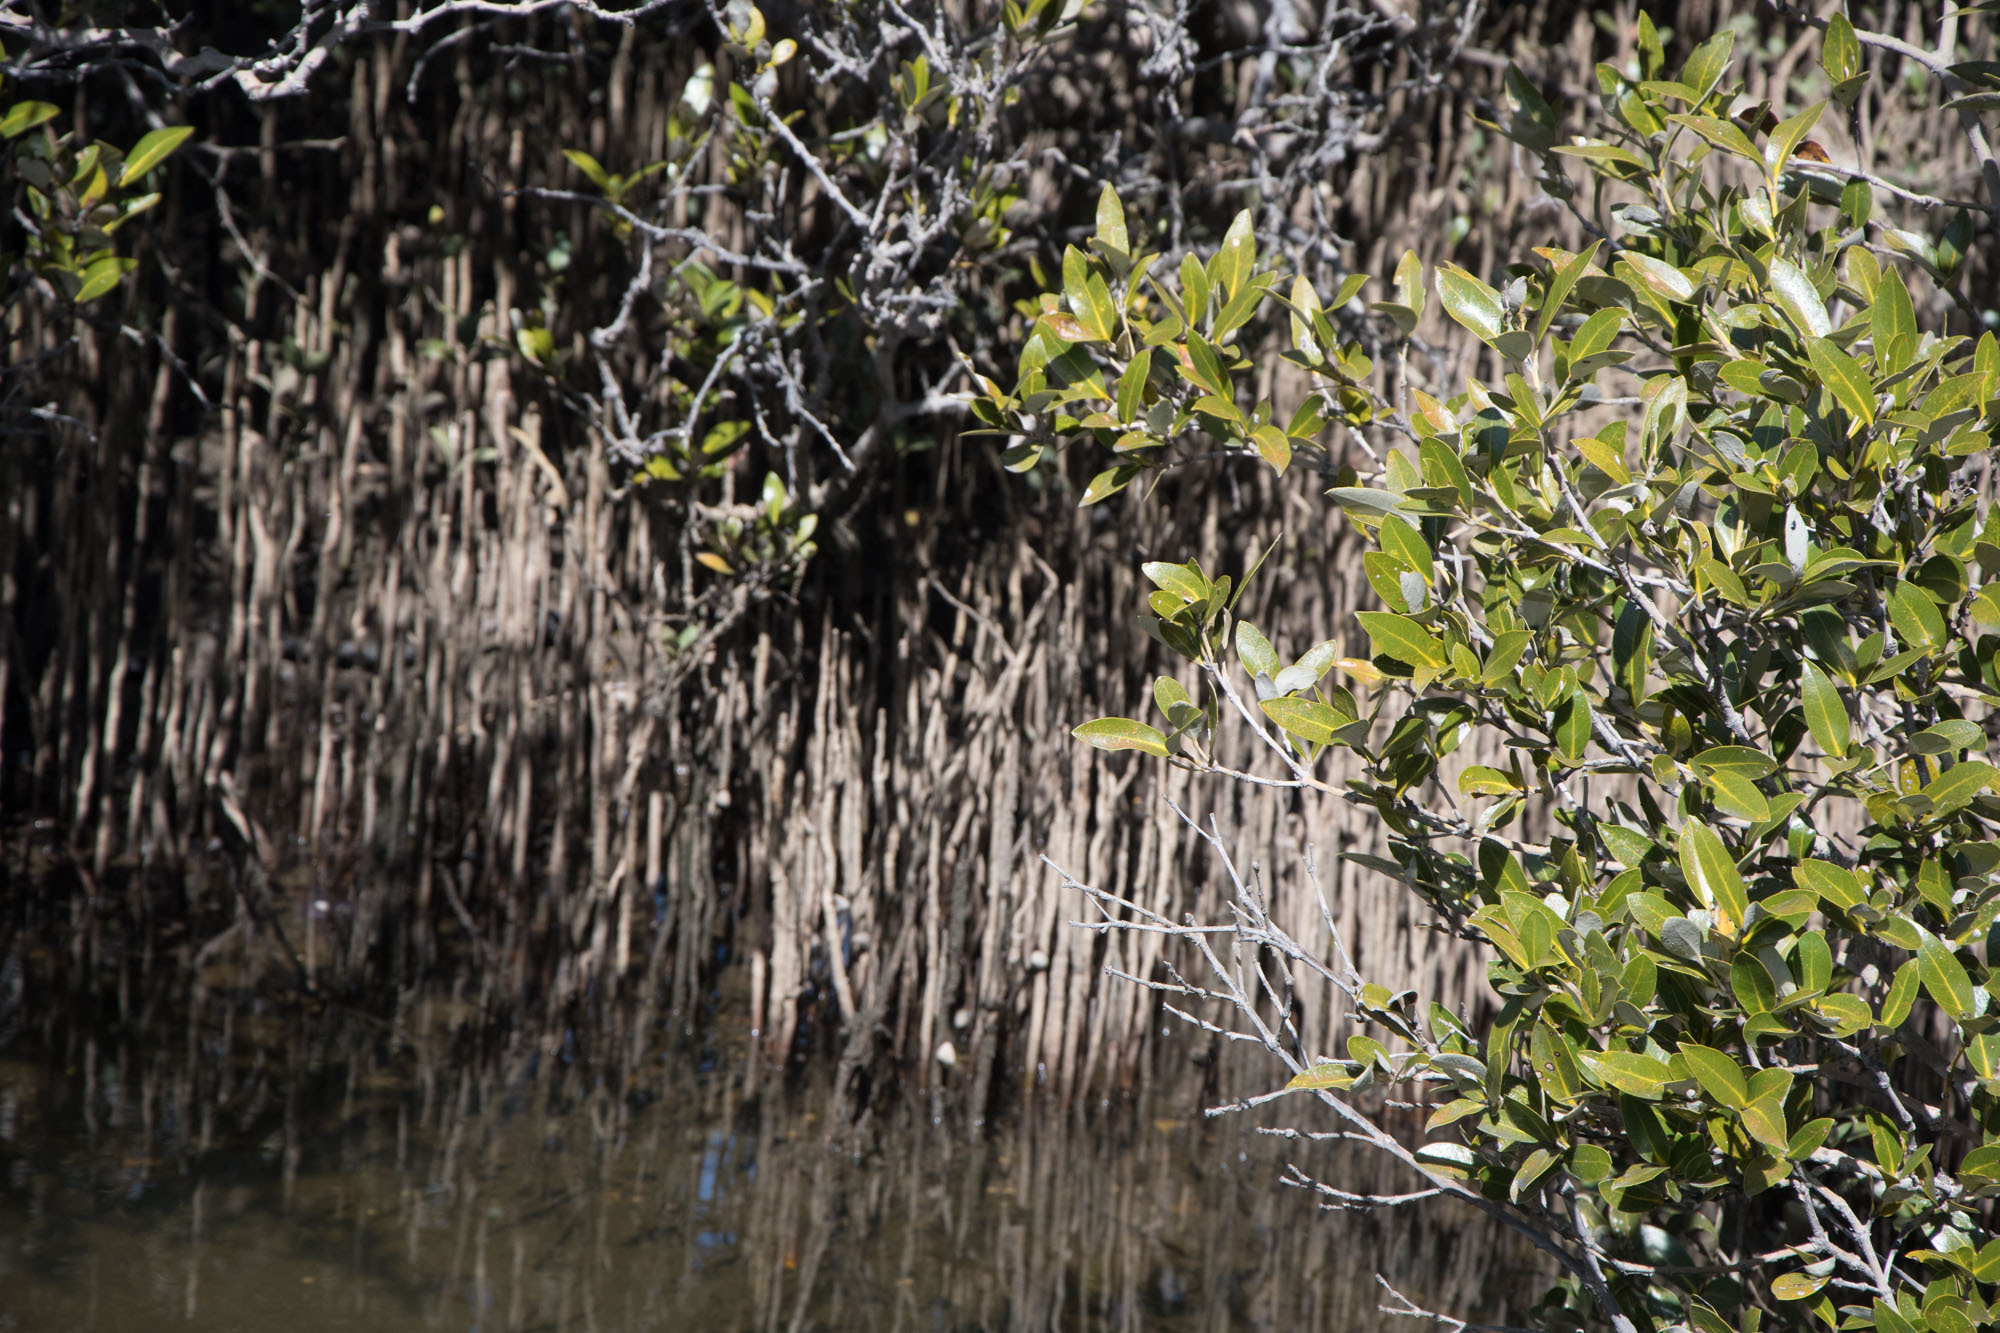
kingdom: Plantae
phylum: Tracheophyta
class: Magnoliopsida
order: Lamiales
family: Acanthaceae
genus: Avicennia
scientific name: Avicennia marina
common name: Gray mangrove
